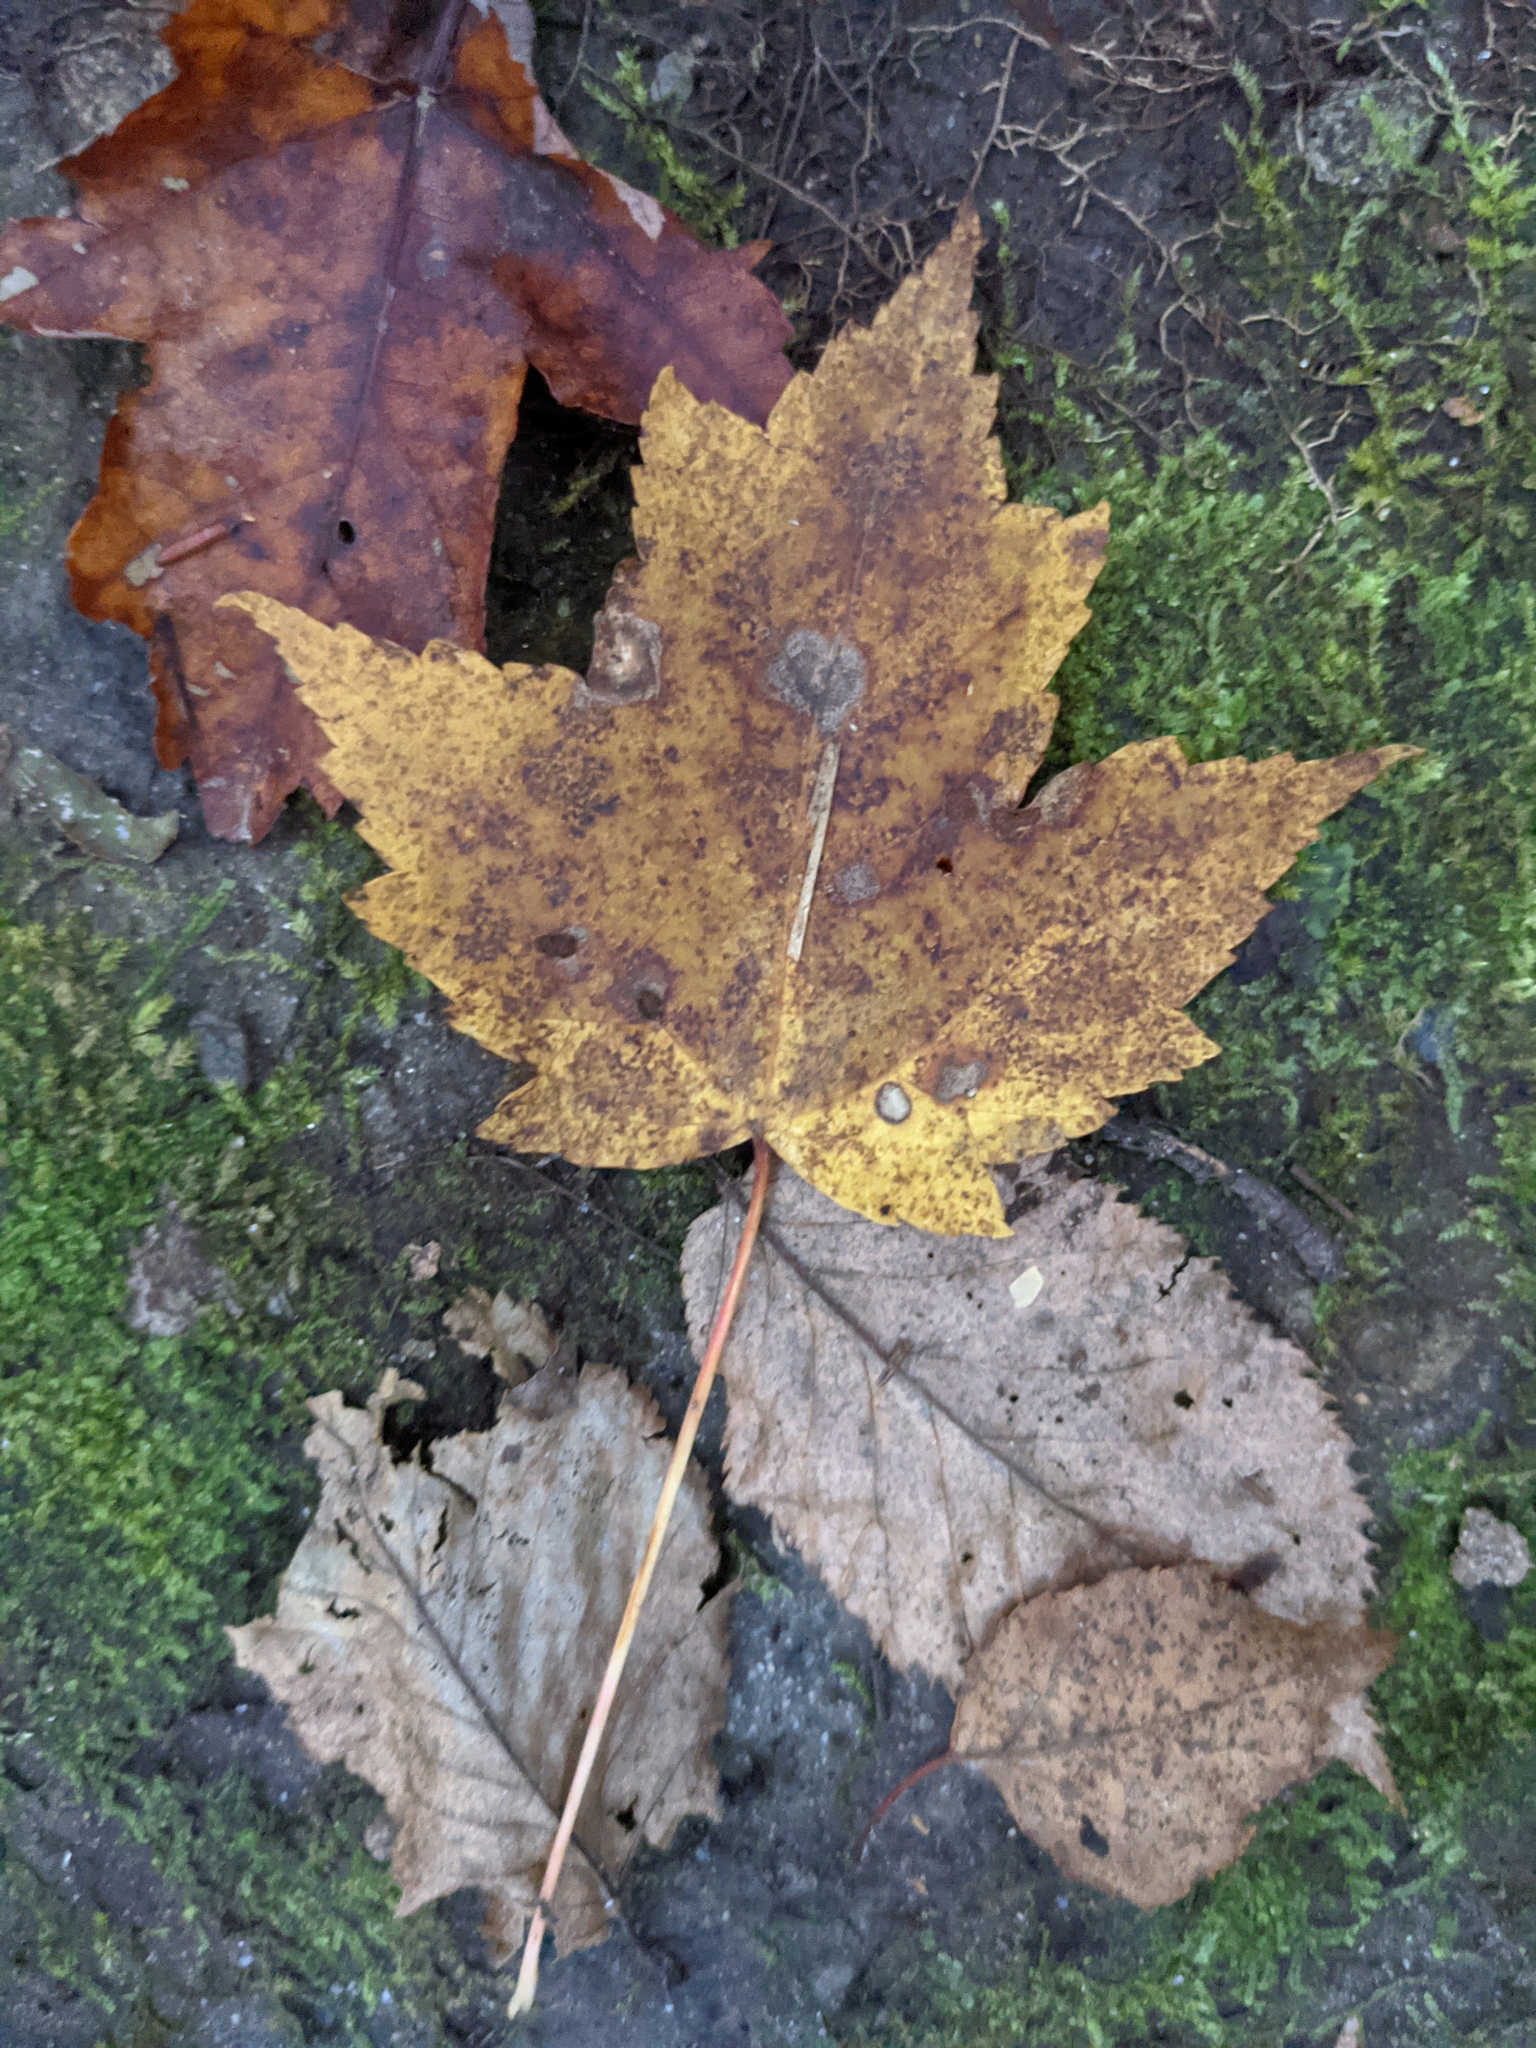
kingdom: Plantae
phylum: Tracheophyta
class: Magnoliopsida
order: Sapindales
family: Sapindaceae
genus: Acer
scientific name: Acer rubrum
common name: Red maple
